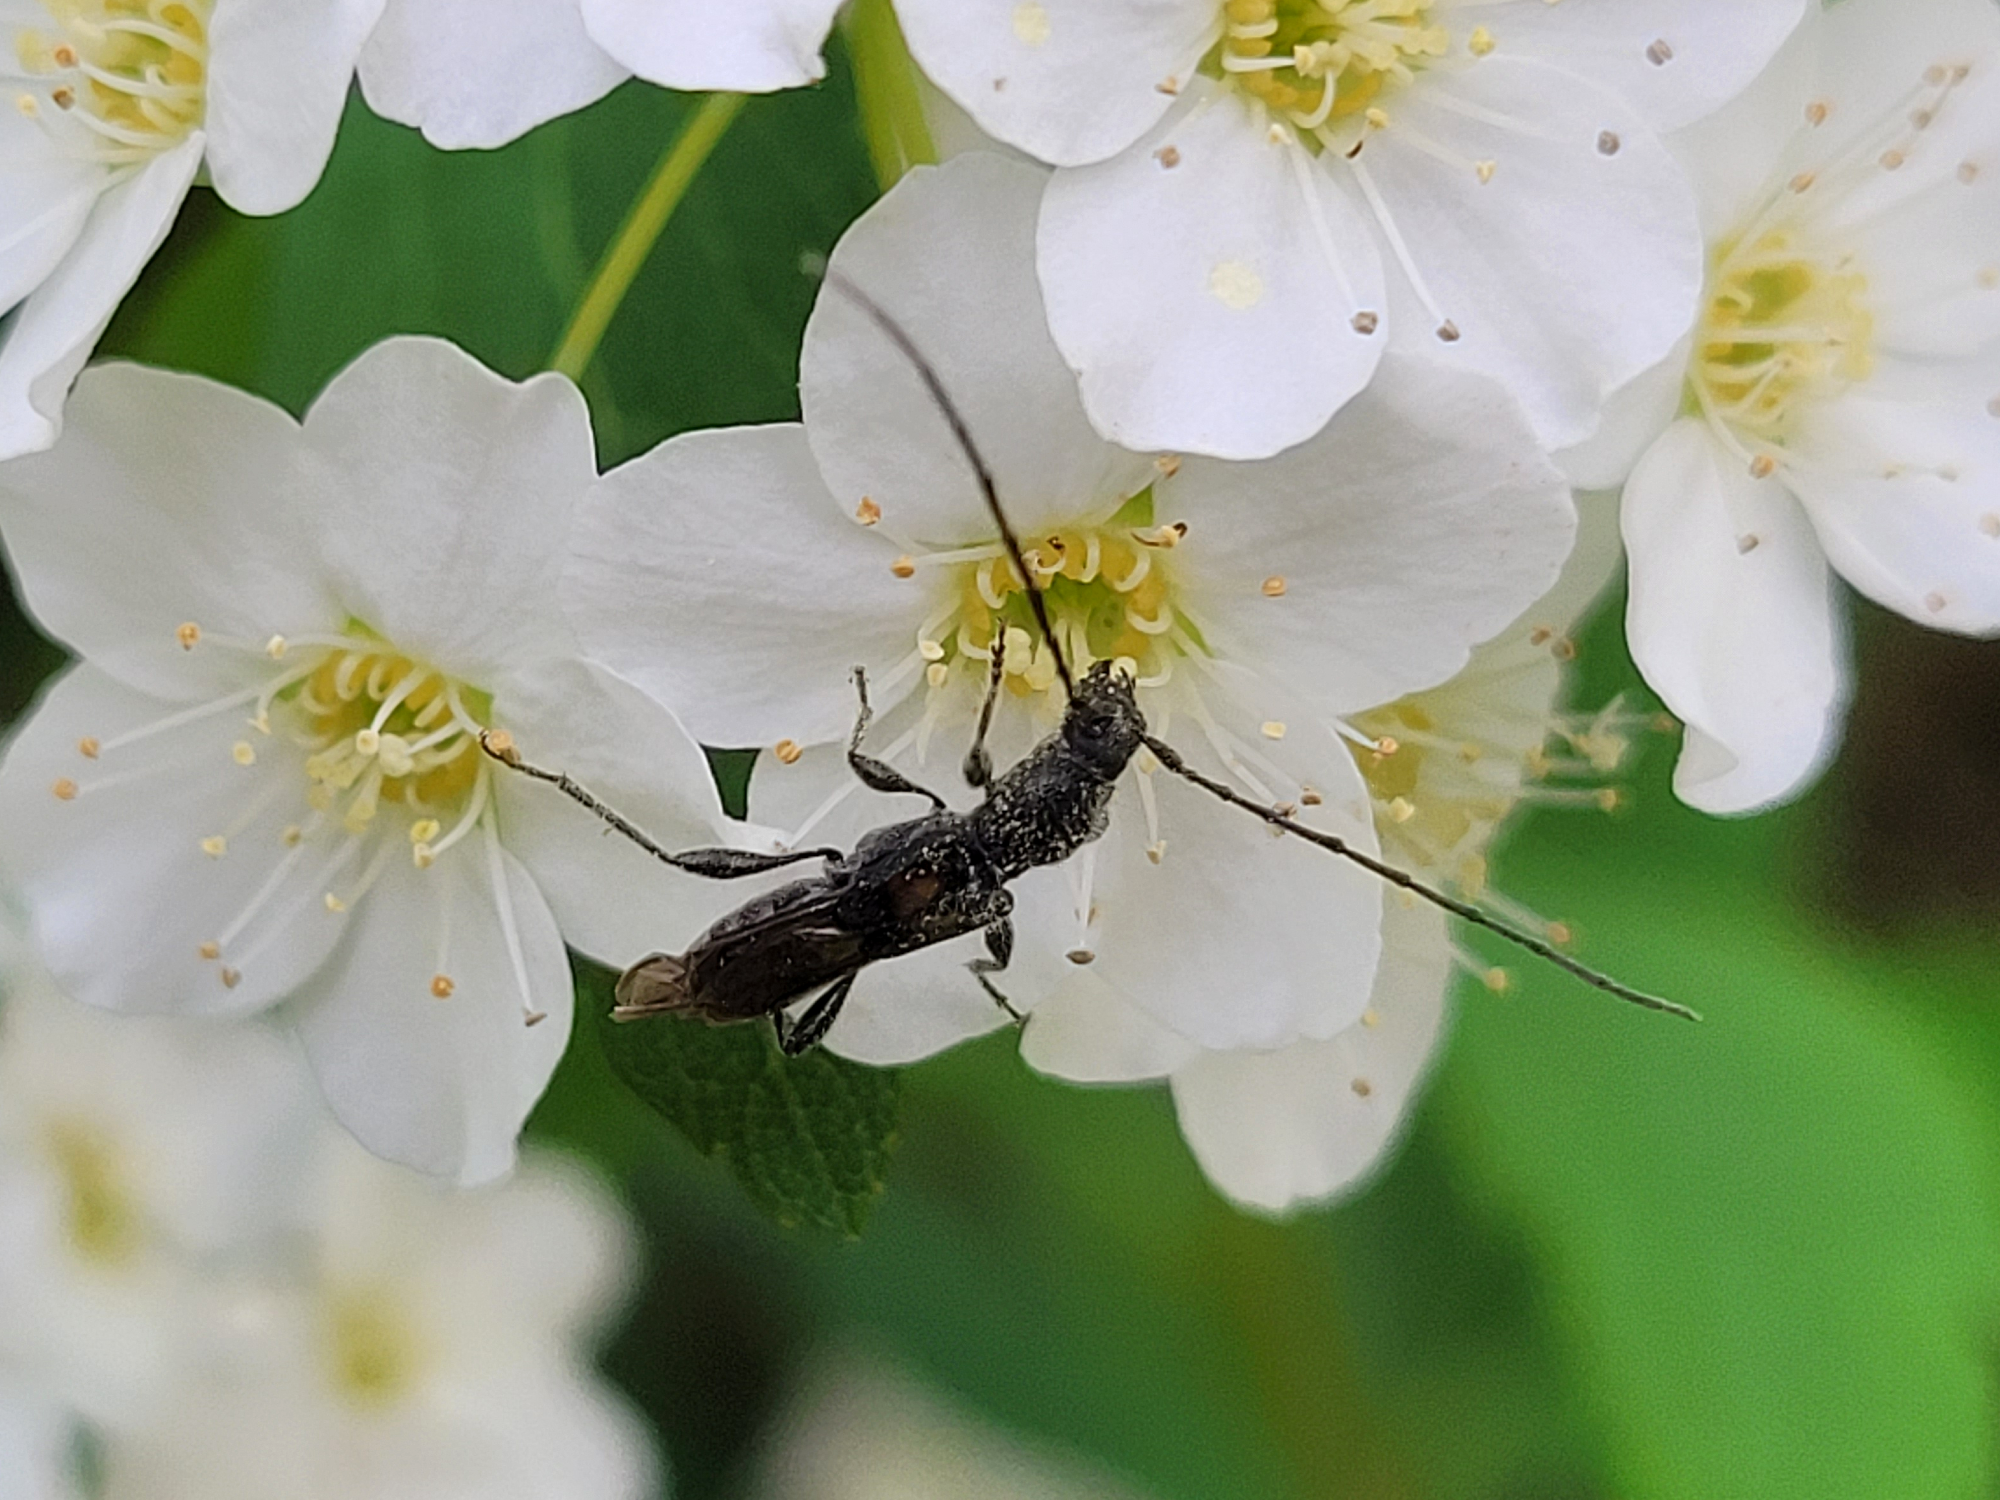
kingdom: Animalia
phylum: Arthropoda
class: Insecta
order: Coleoptera
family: Cerambycidae
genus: Molorchus
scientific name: Molorchus bimaculatus
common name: Bimaculate longhorn beetle
